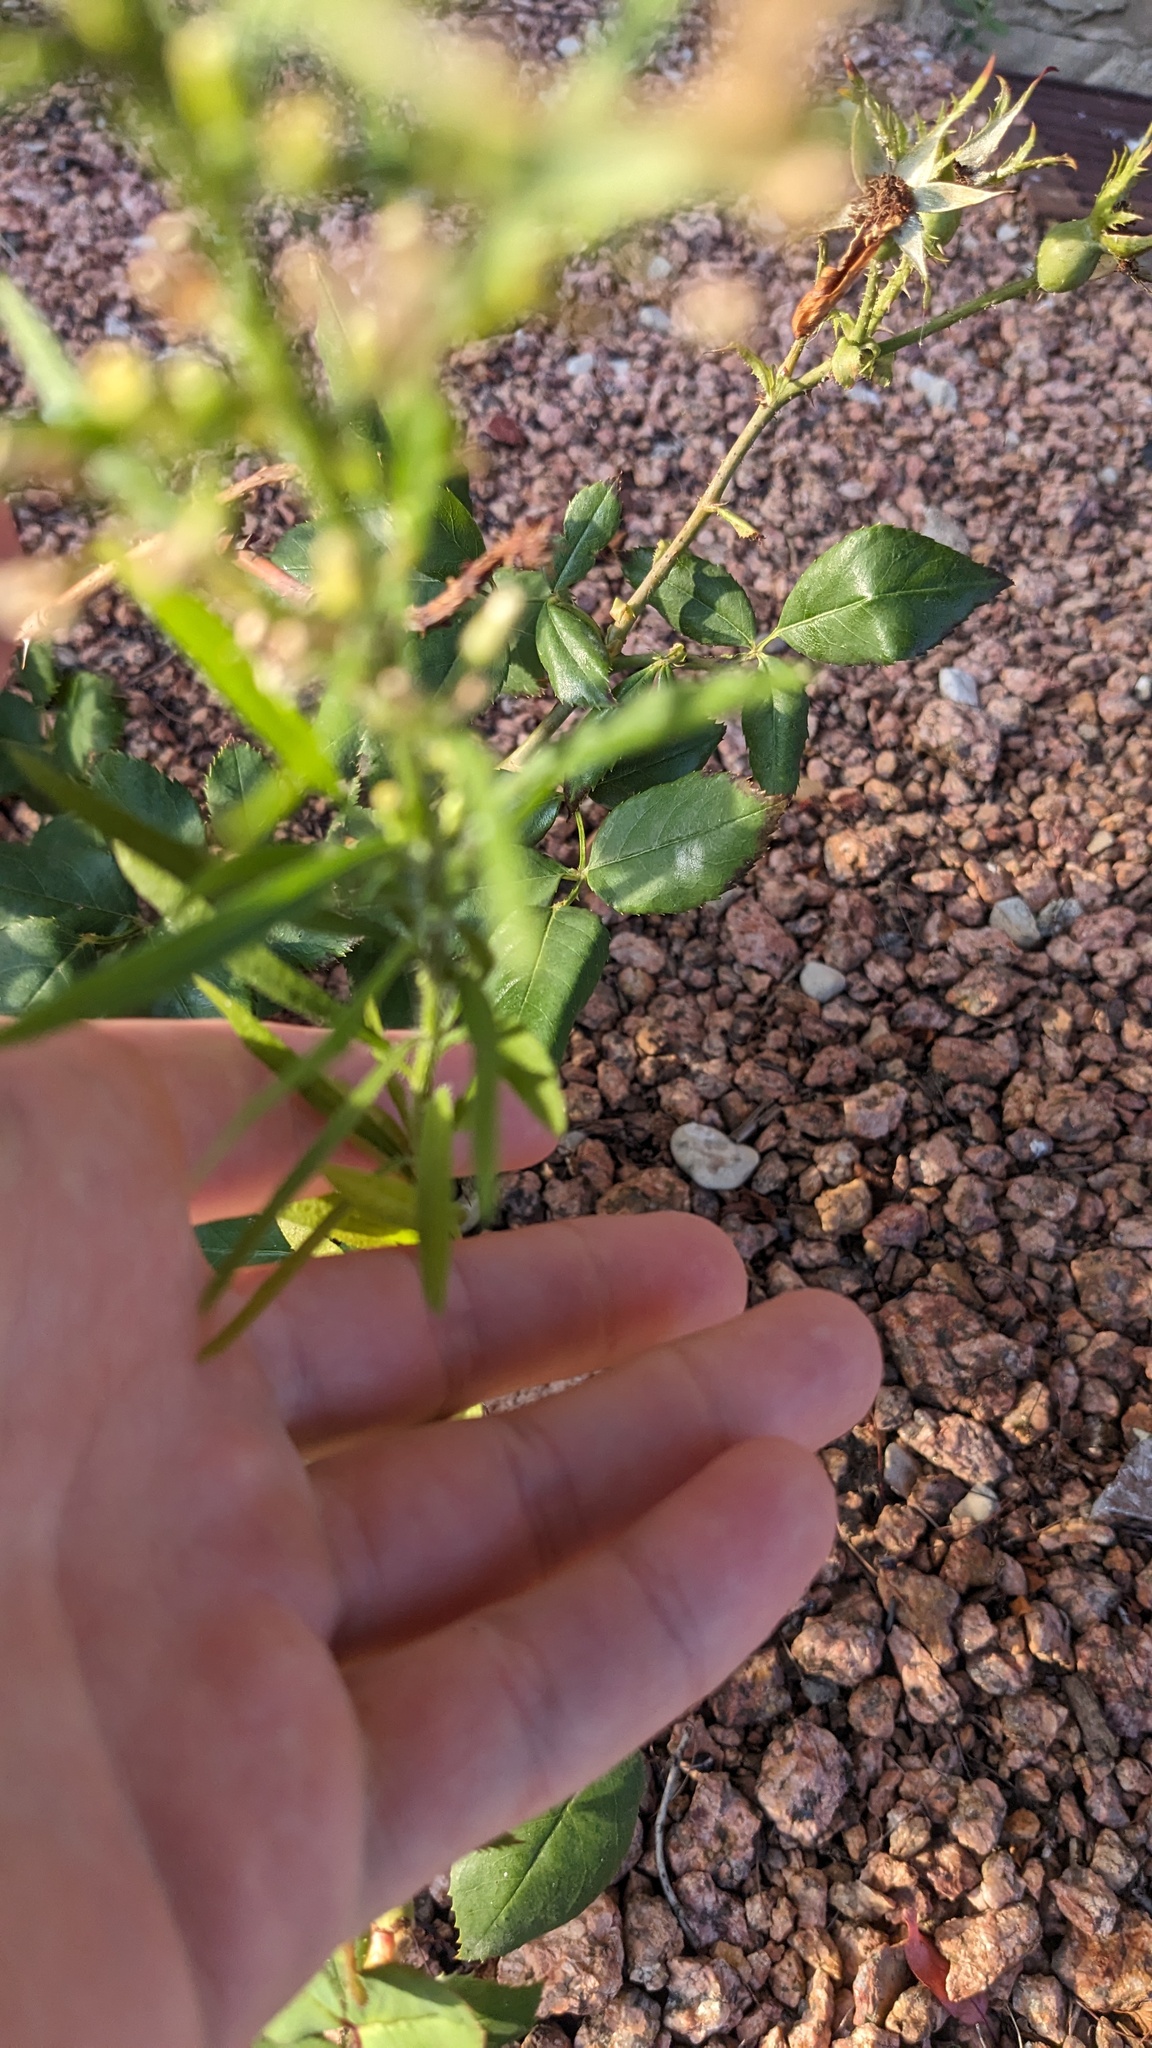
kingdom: Plantae
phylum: Tracheophyta
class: Magnoliopsida
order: Asterales
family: Asteraceae
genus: Erigeron
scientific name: Erigeron canadensis
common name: Canadian fleabane
